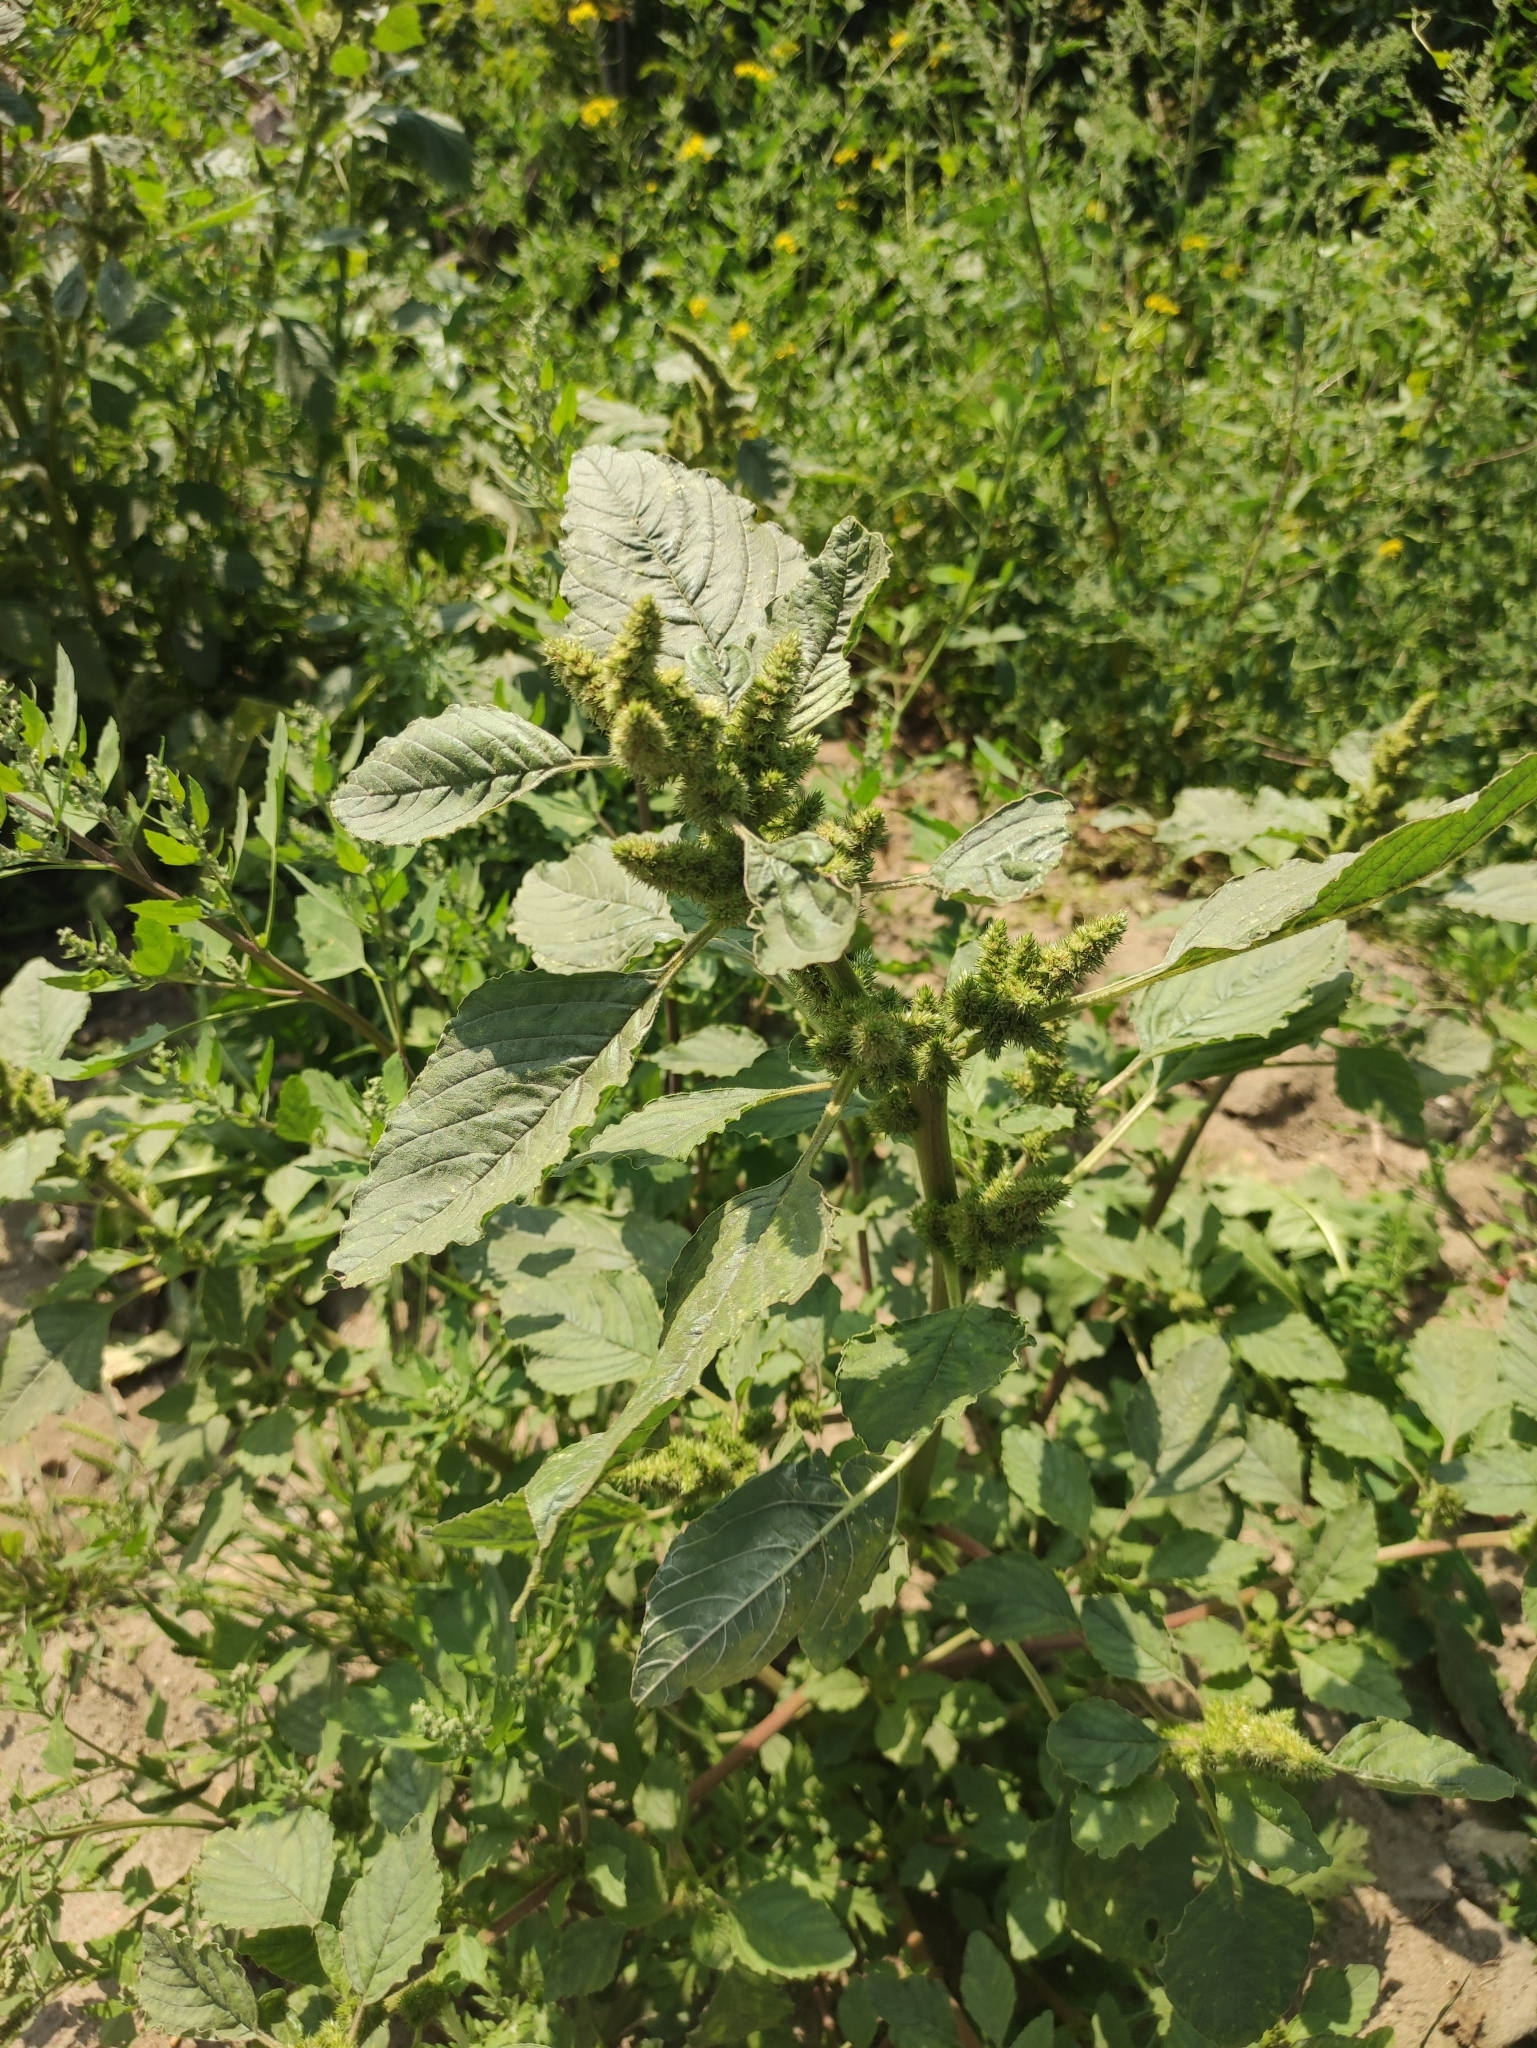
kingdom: Plantae
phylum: Tracheophyta
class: Magnoliopsida
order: Caryophyllales
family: Amaranthaceae
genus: Amaranthus
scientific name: Amaranthus retroflexus
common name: Redroot amaranth
